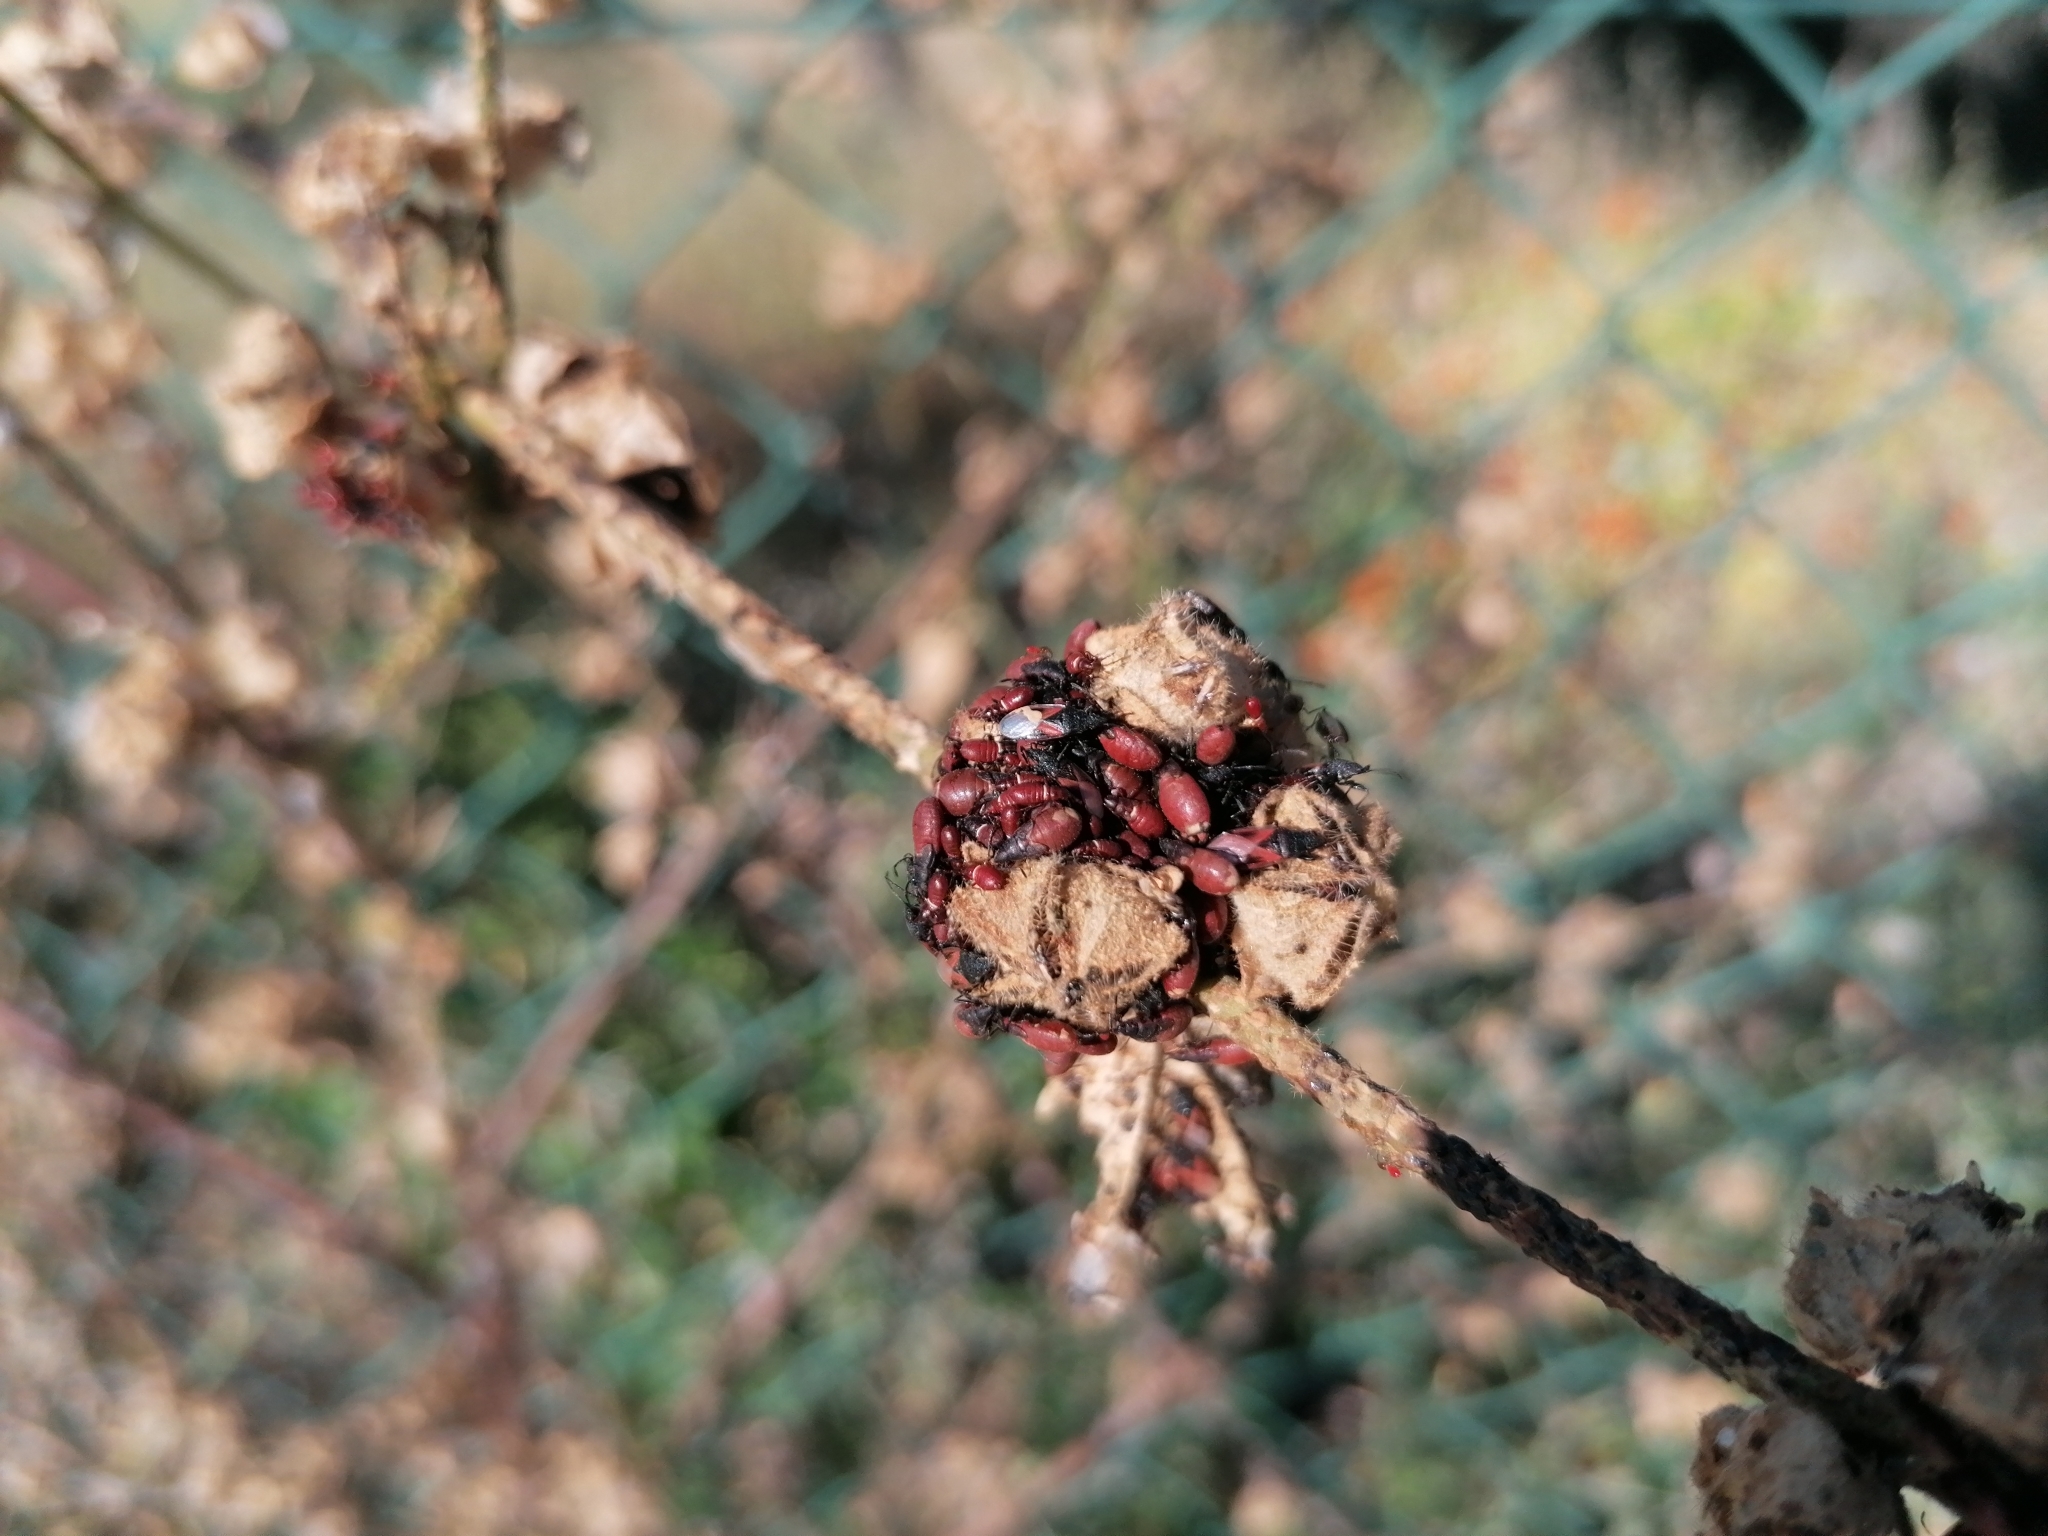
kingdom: Animalia
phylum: Arthropoda
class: Insecta
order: Hemiptera
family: Oxycarenidae
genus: Oxycarenus
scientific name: Oxycarenus lavaterae
